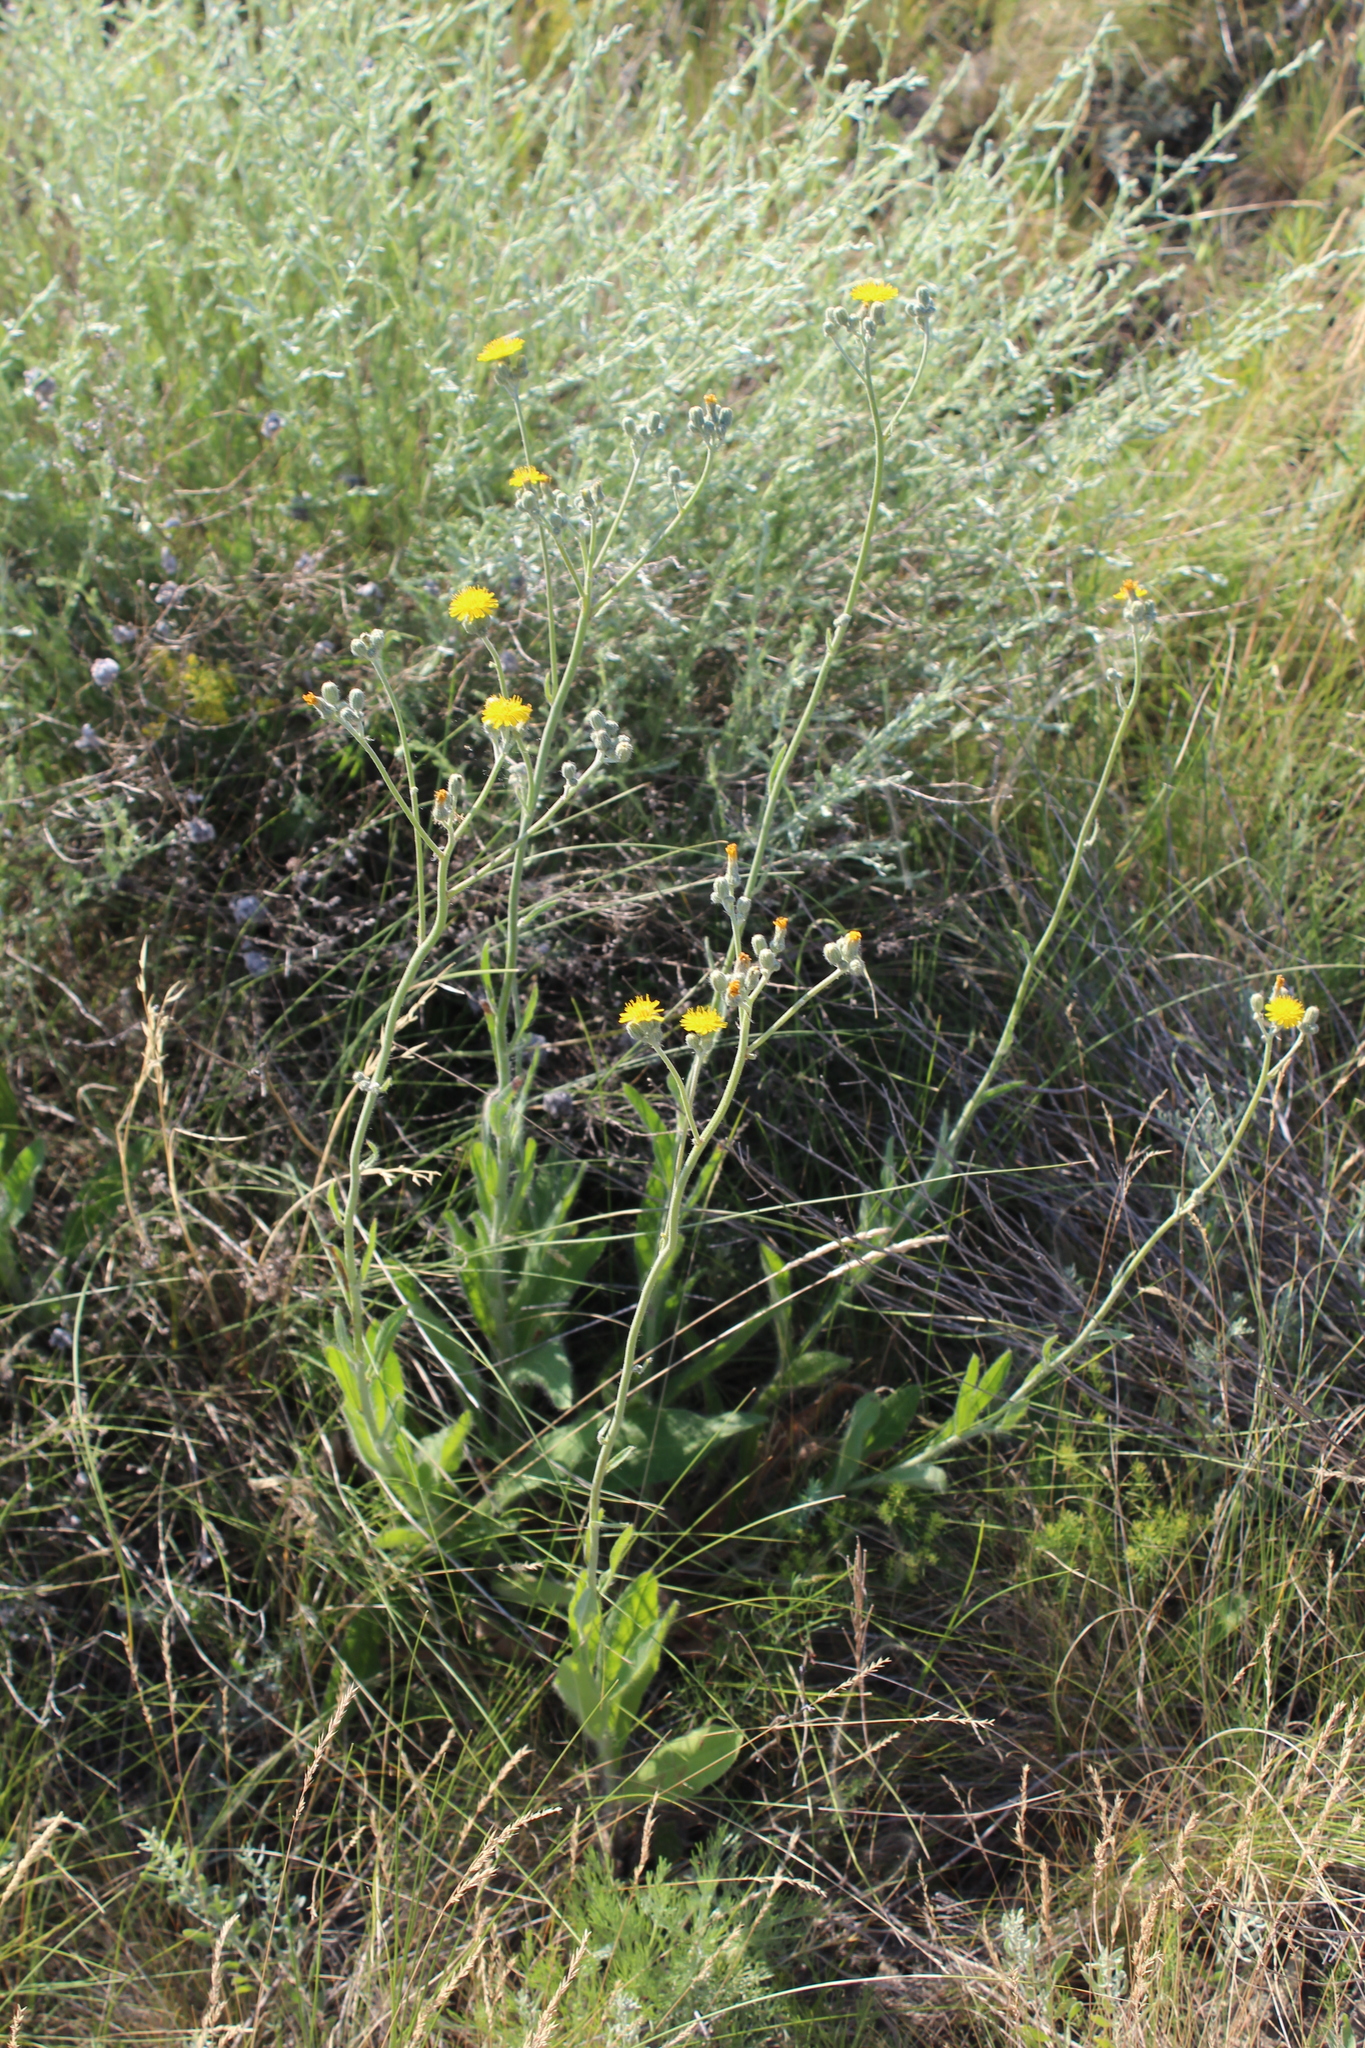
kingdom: Plantae
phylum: Tracheophyta
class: Magnoliopsida
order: Asterales
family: Asteraceae
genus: Pilosella
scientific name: Pilosella echioides
